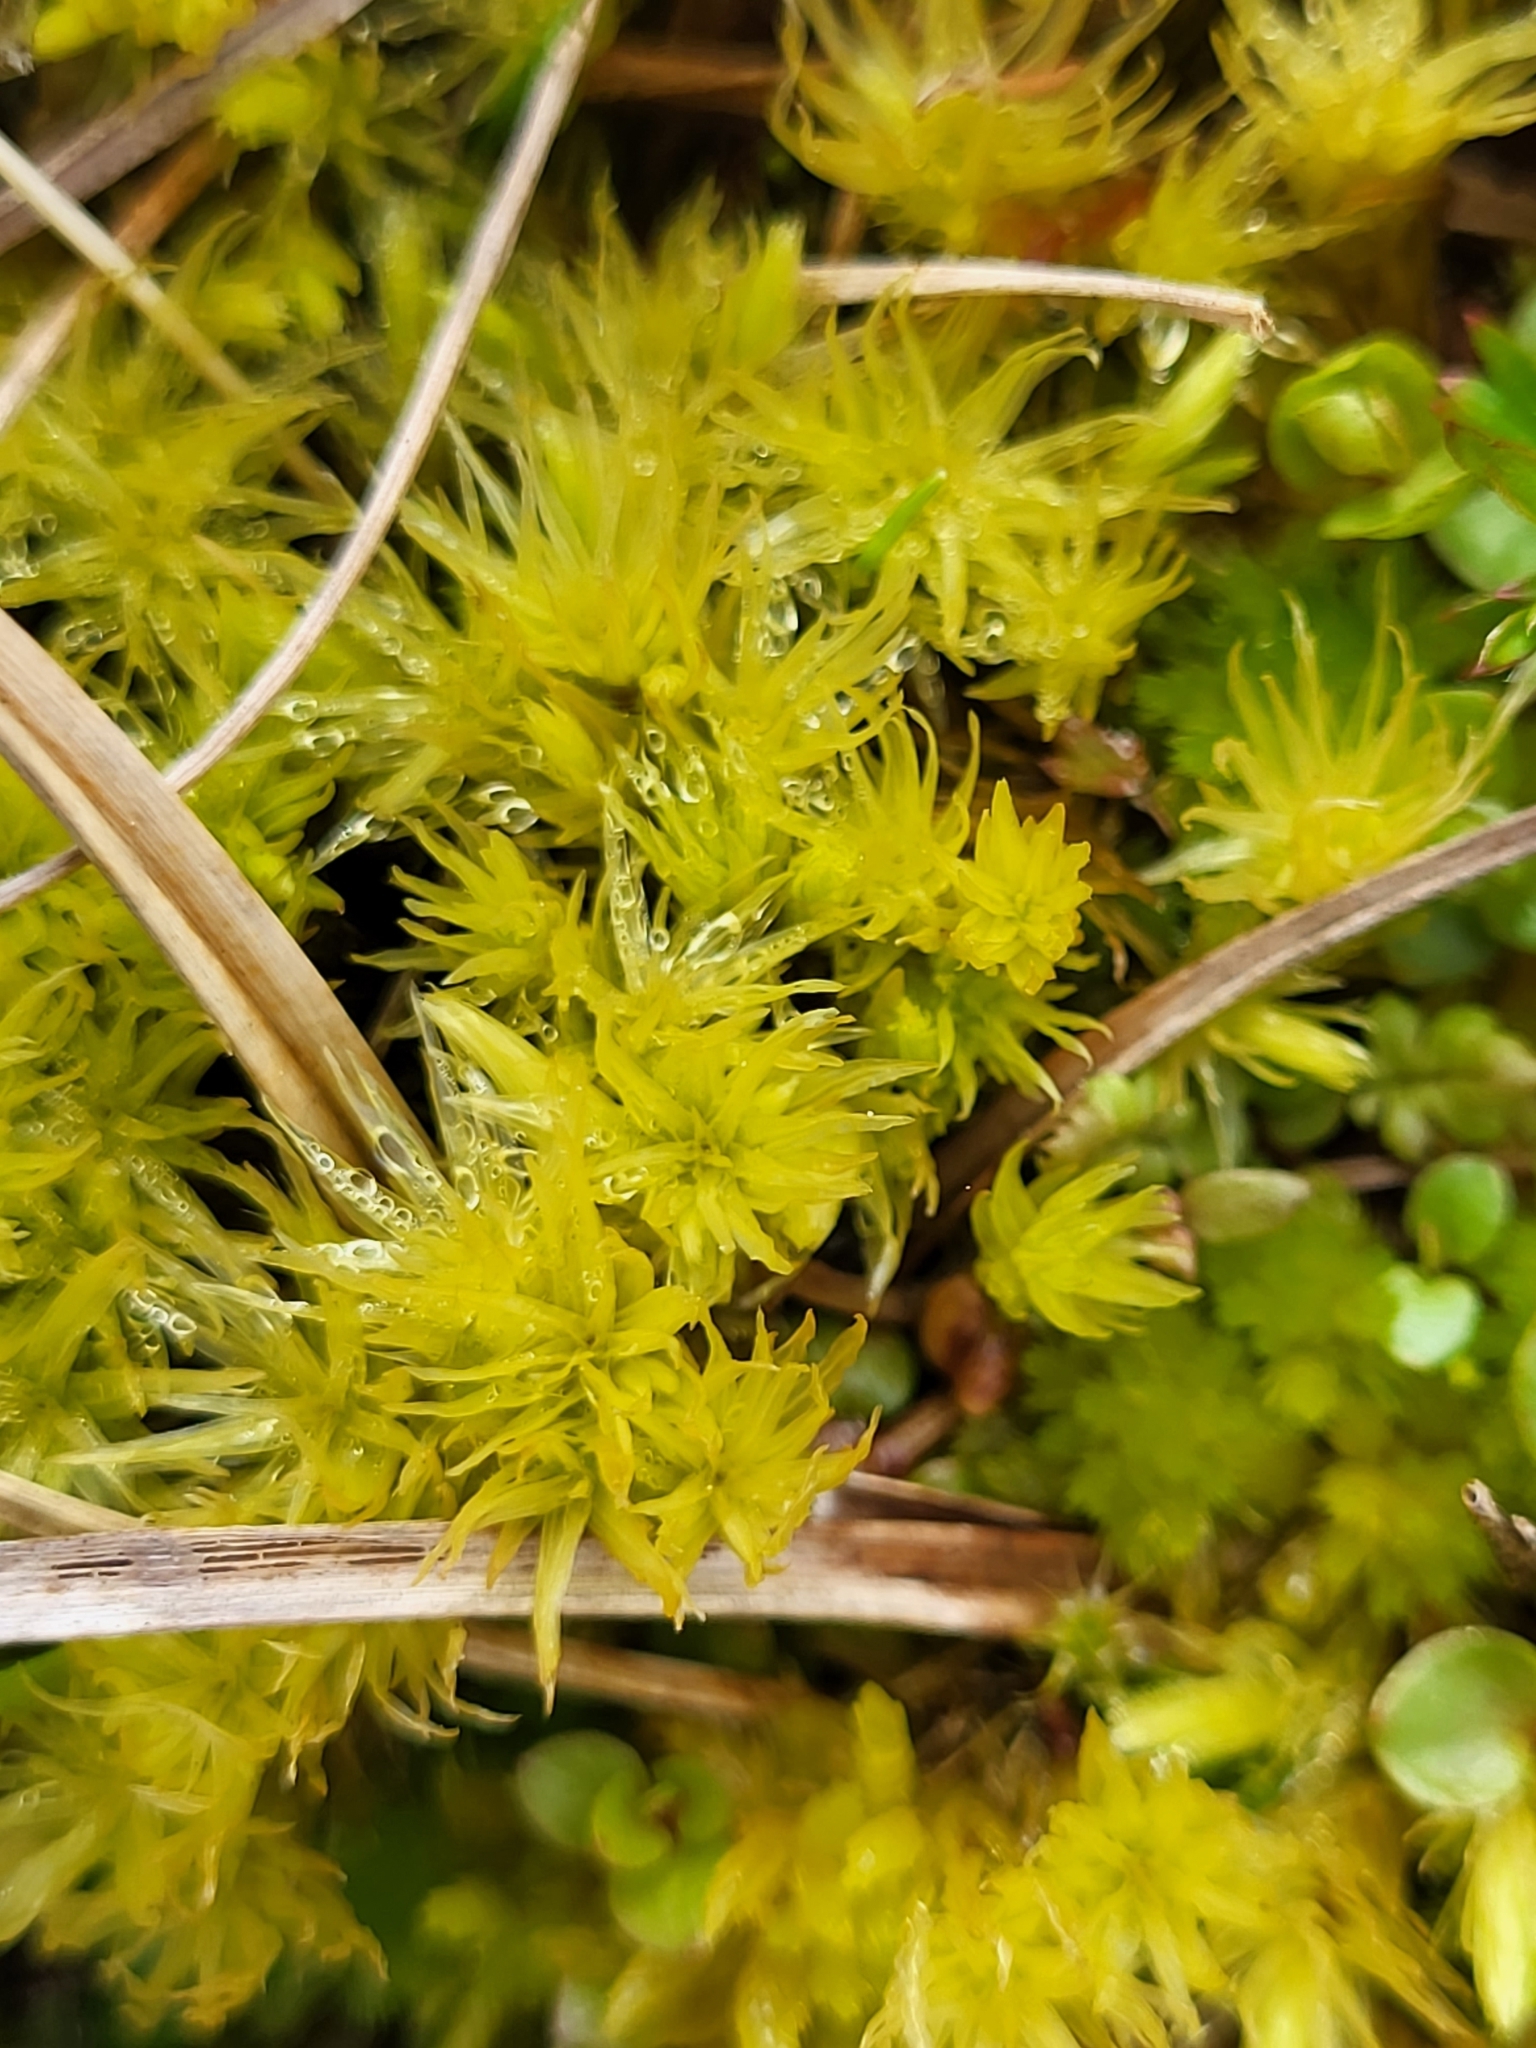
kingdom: Plantae
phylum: Bryophyta
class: Bryopsida
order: Aulacomniales
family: Aulacomniaceae
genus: Aulacomnium
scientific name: Aulacomnium palustre
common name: Bog groove-moss
